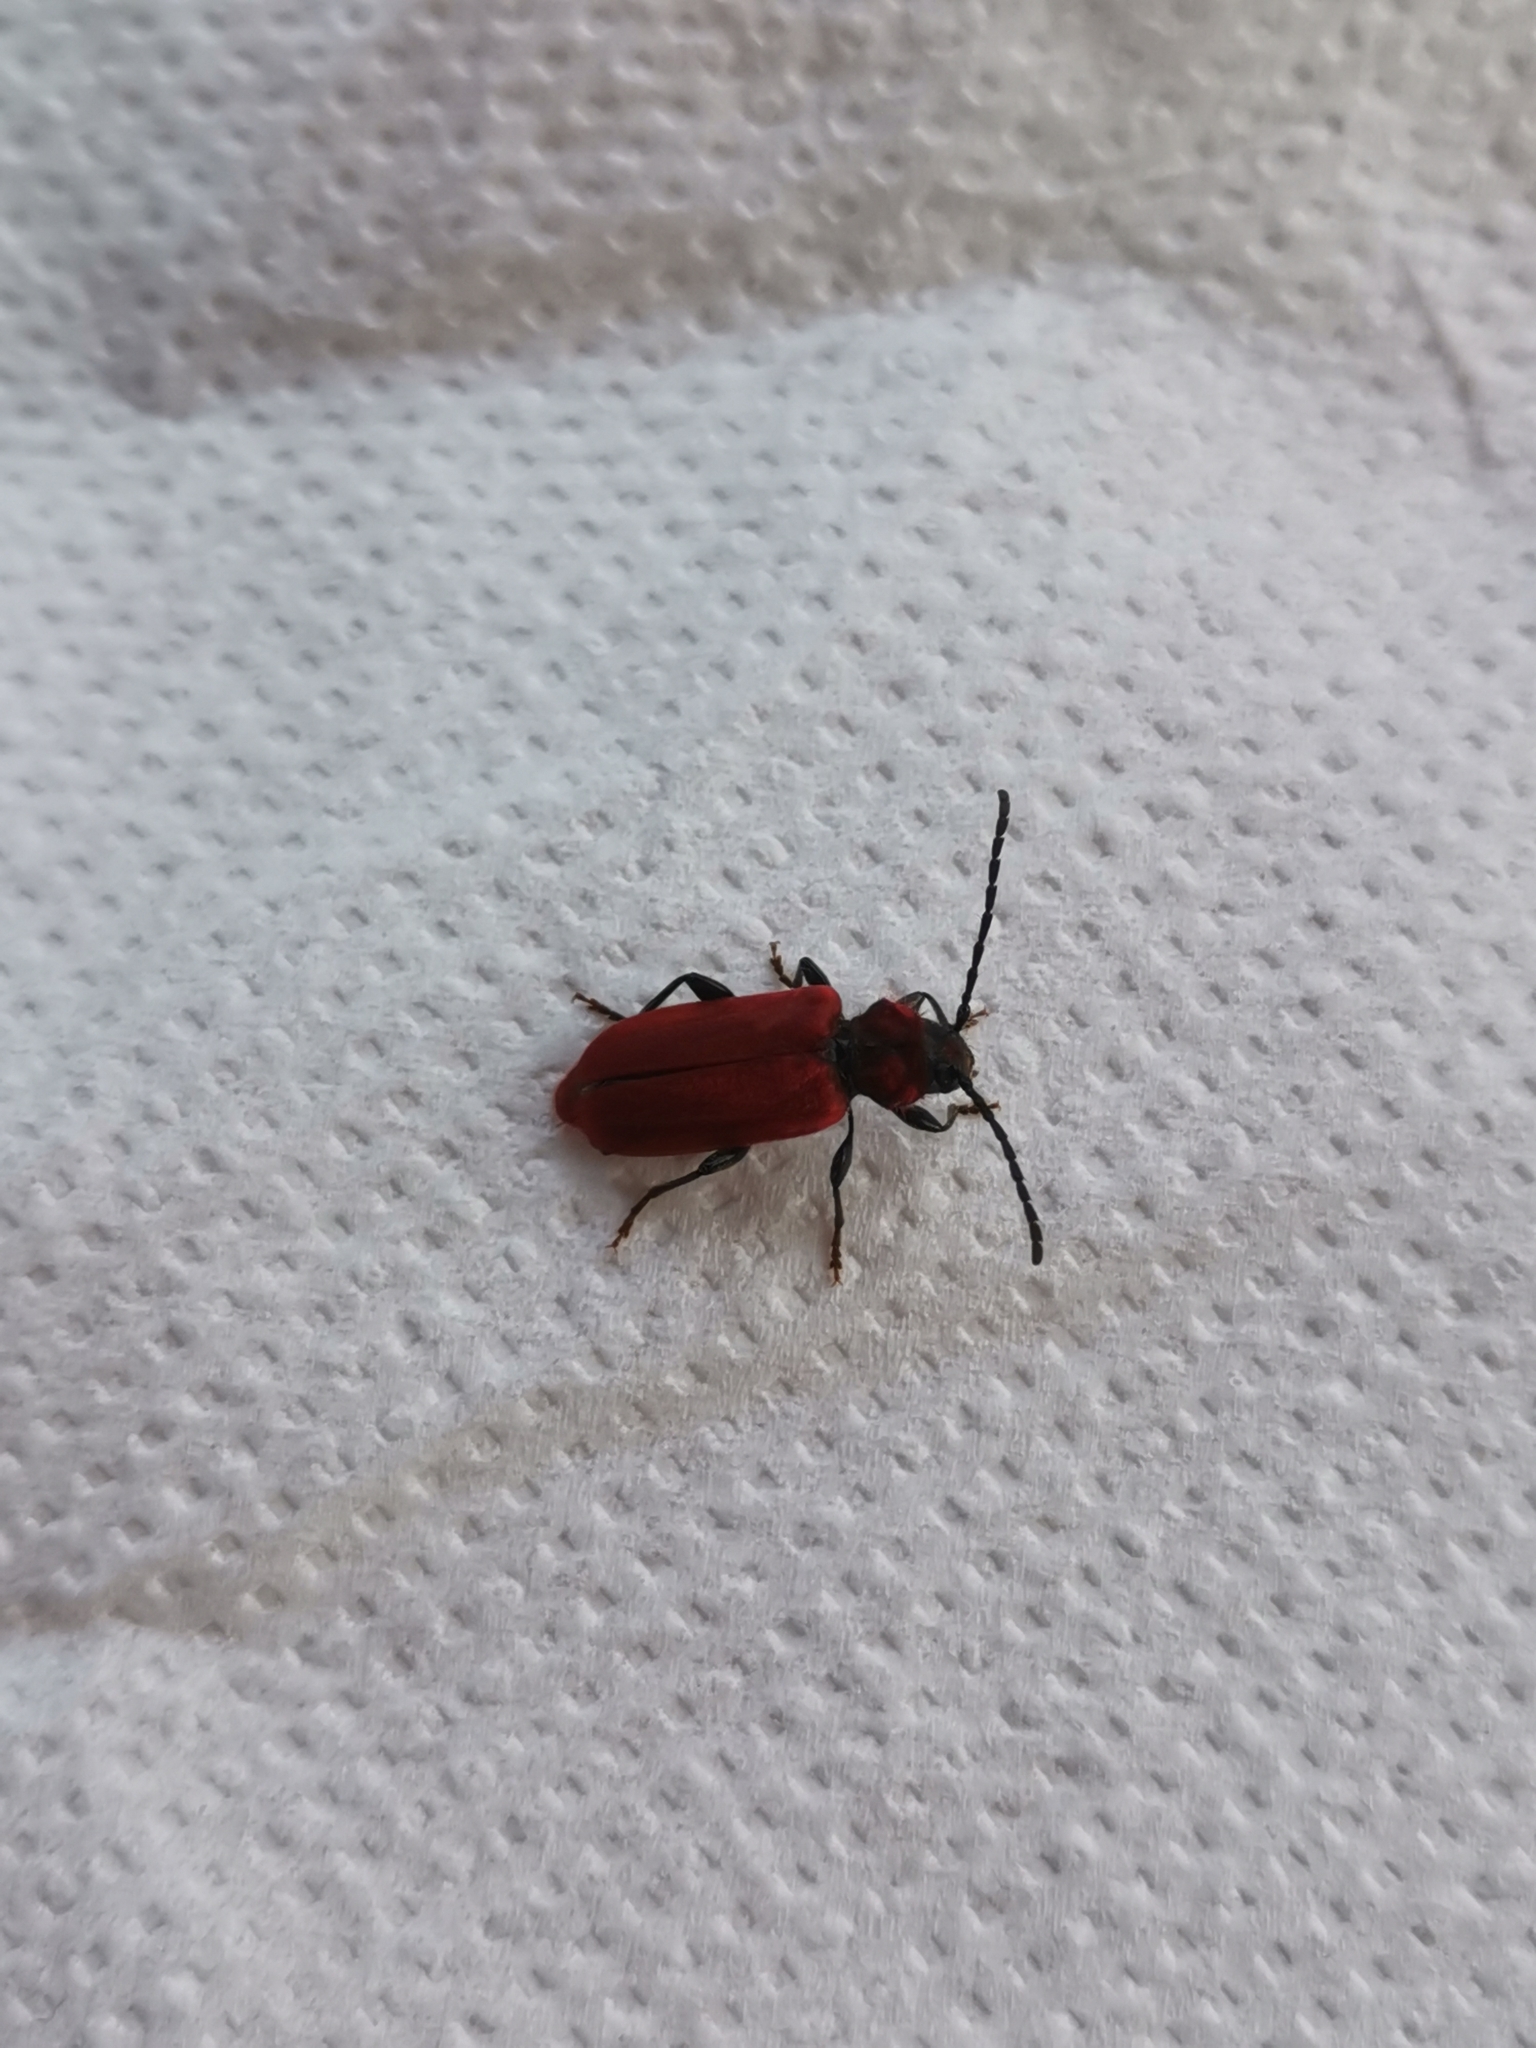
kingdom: Animalia
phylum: Arthropoda
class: Insecta
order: Coleoptera
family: Cerambycidae
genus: Pyrrhidium
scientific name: Pyrrhidium sanguineum
